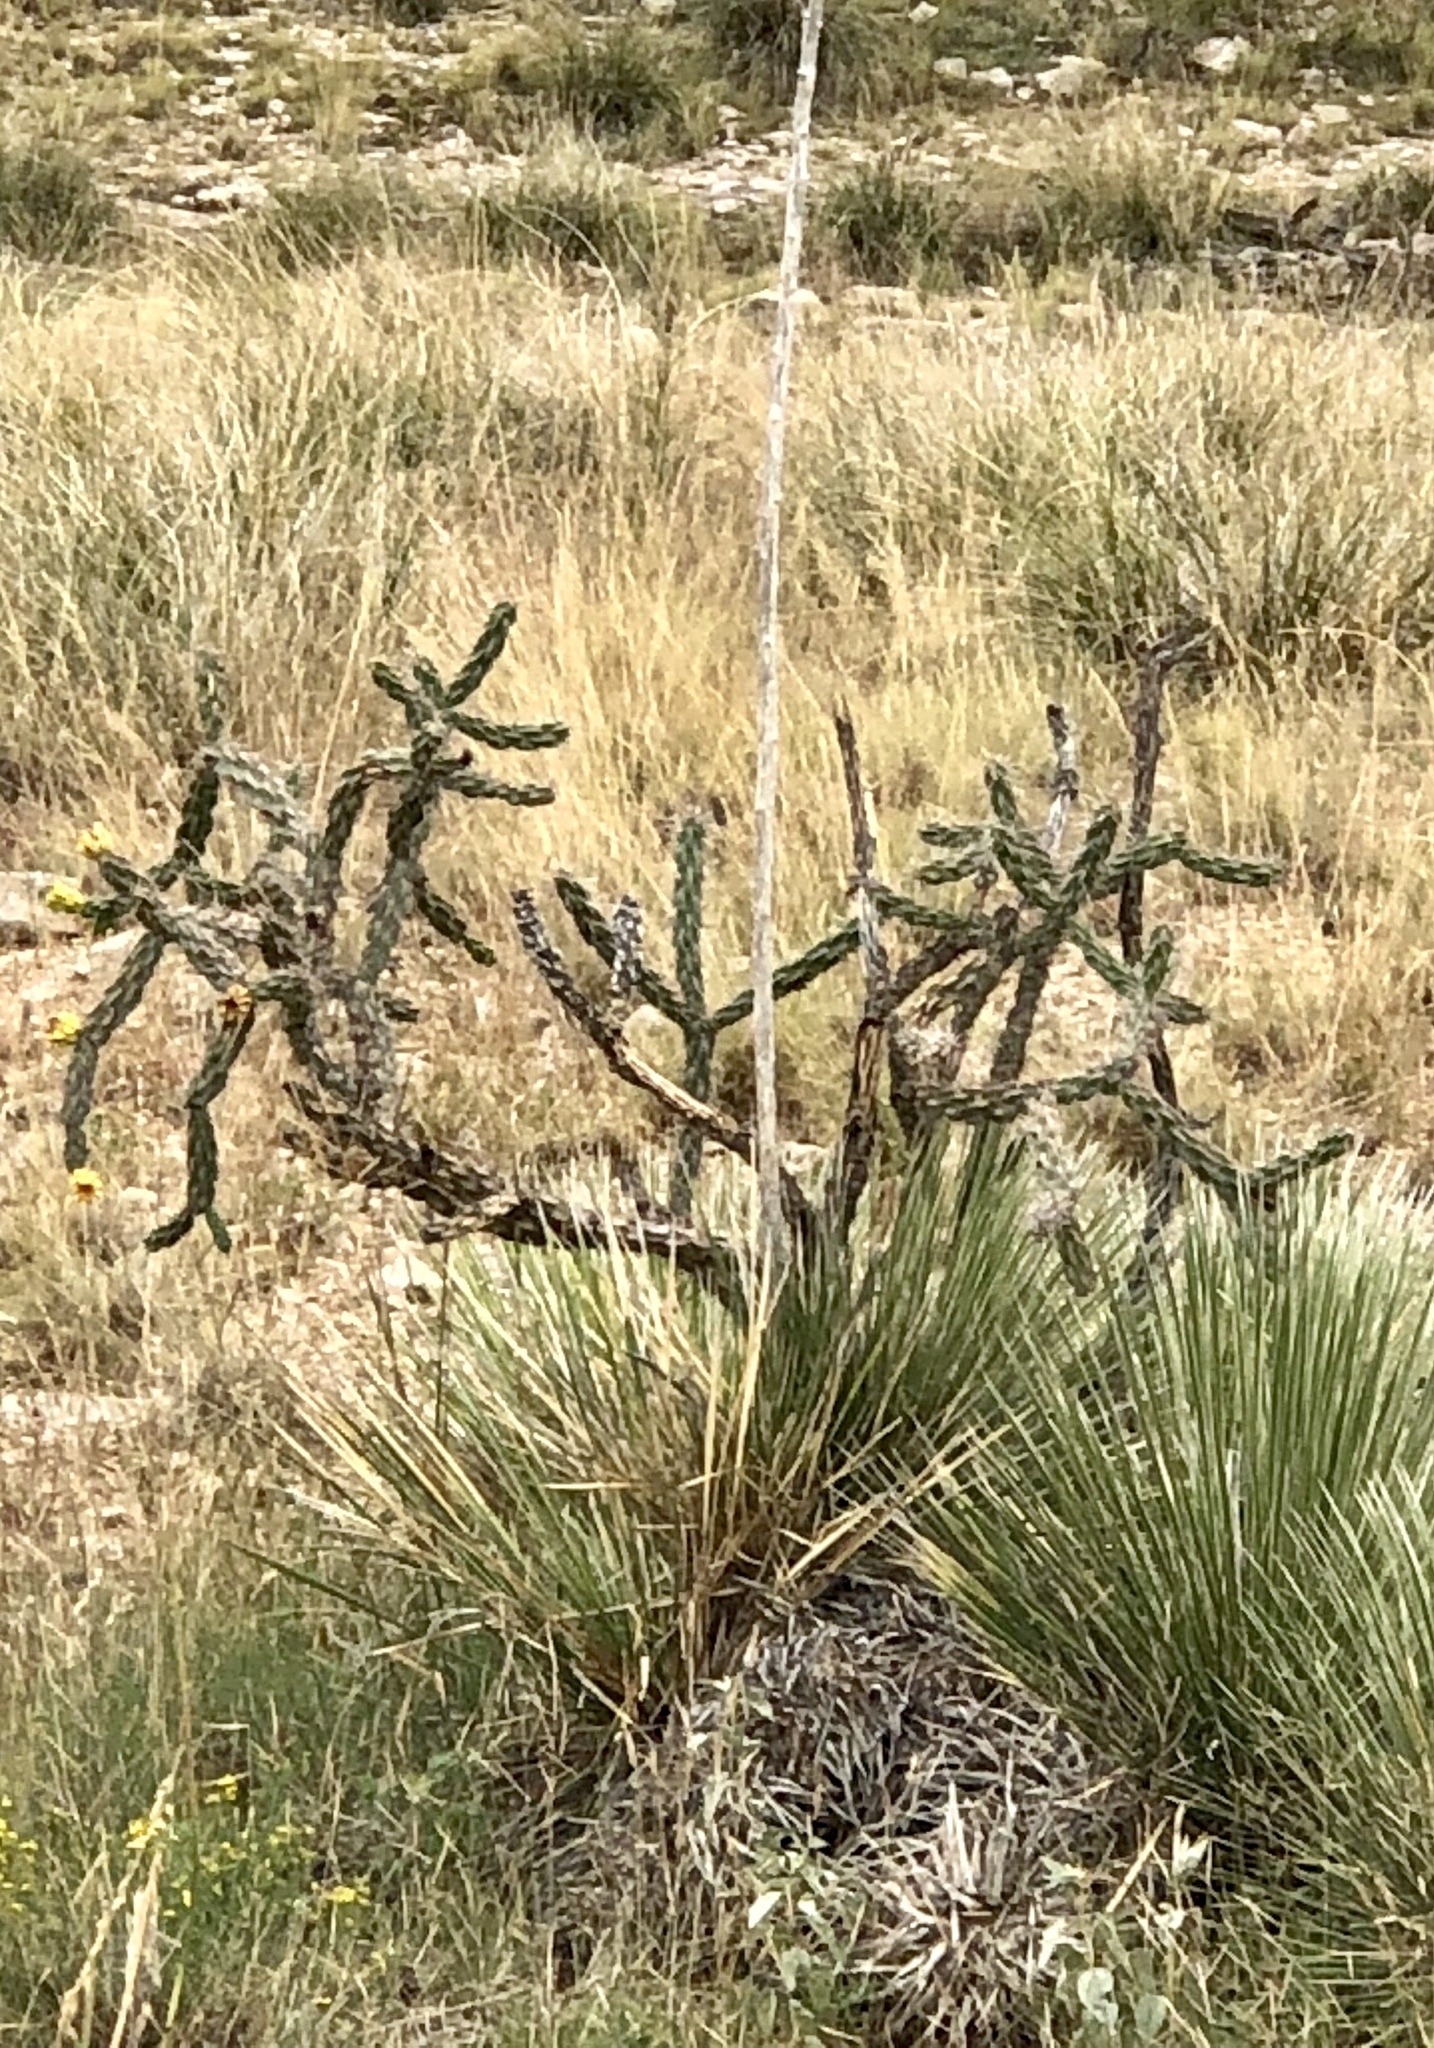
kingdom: Plantae
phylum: Tracheophyta
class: Magnoliopsida
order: Caryophyllales
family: Cactaceae
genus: Cylindropuntia
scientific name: Cylindropuntia imbricata
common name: Candelabrum cactus
